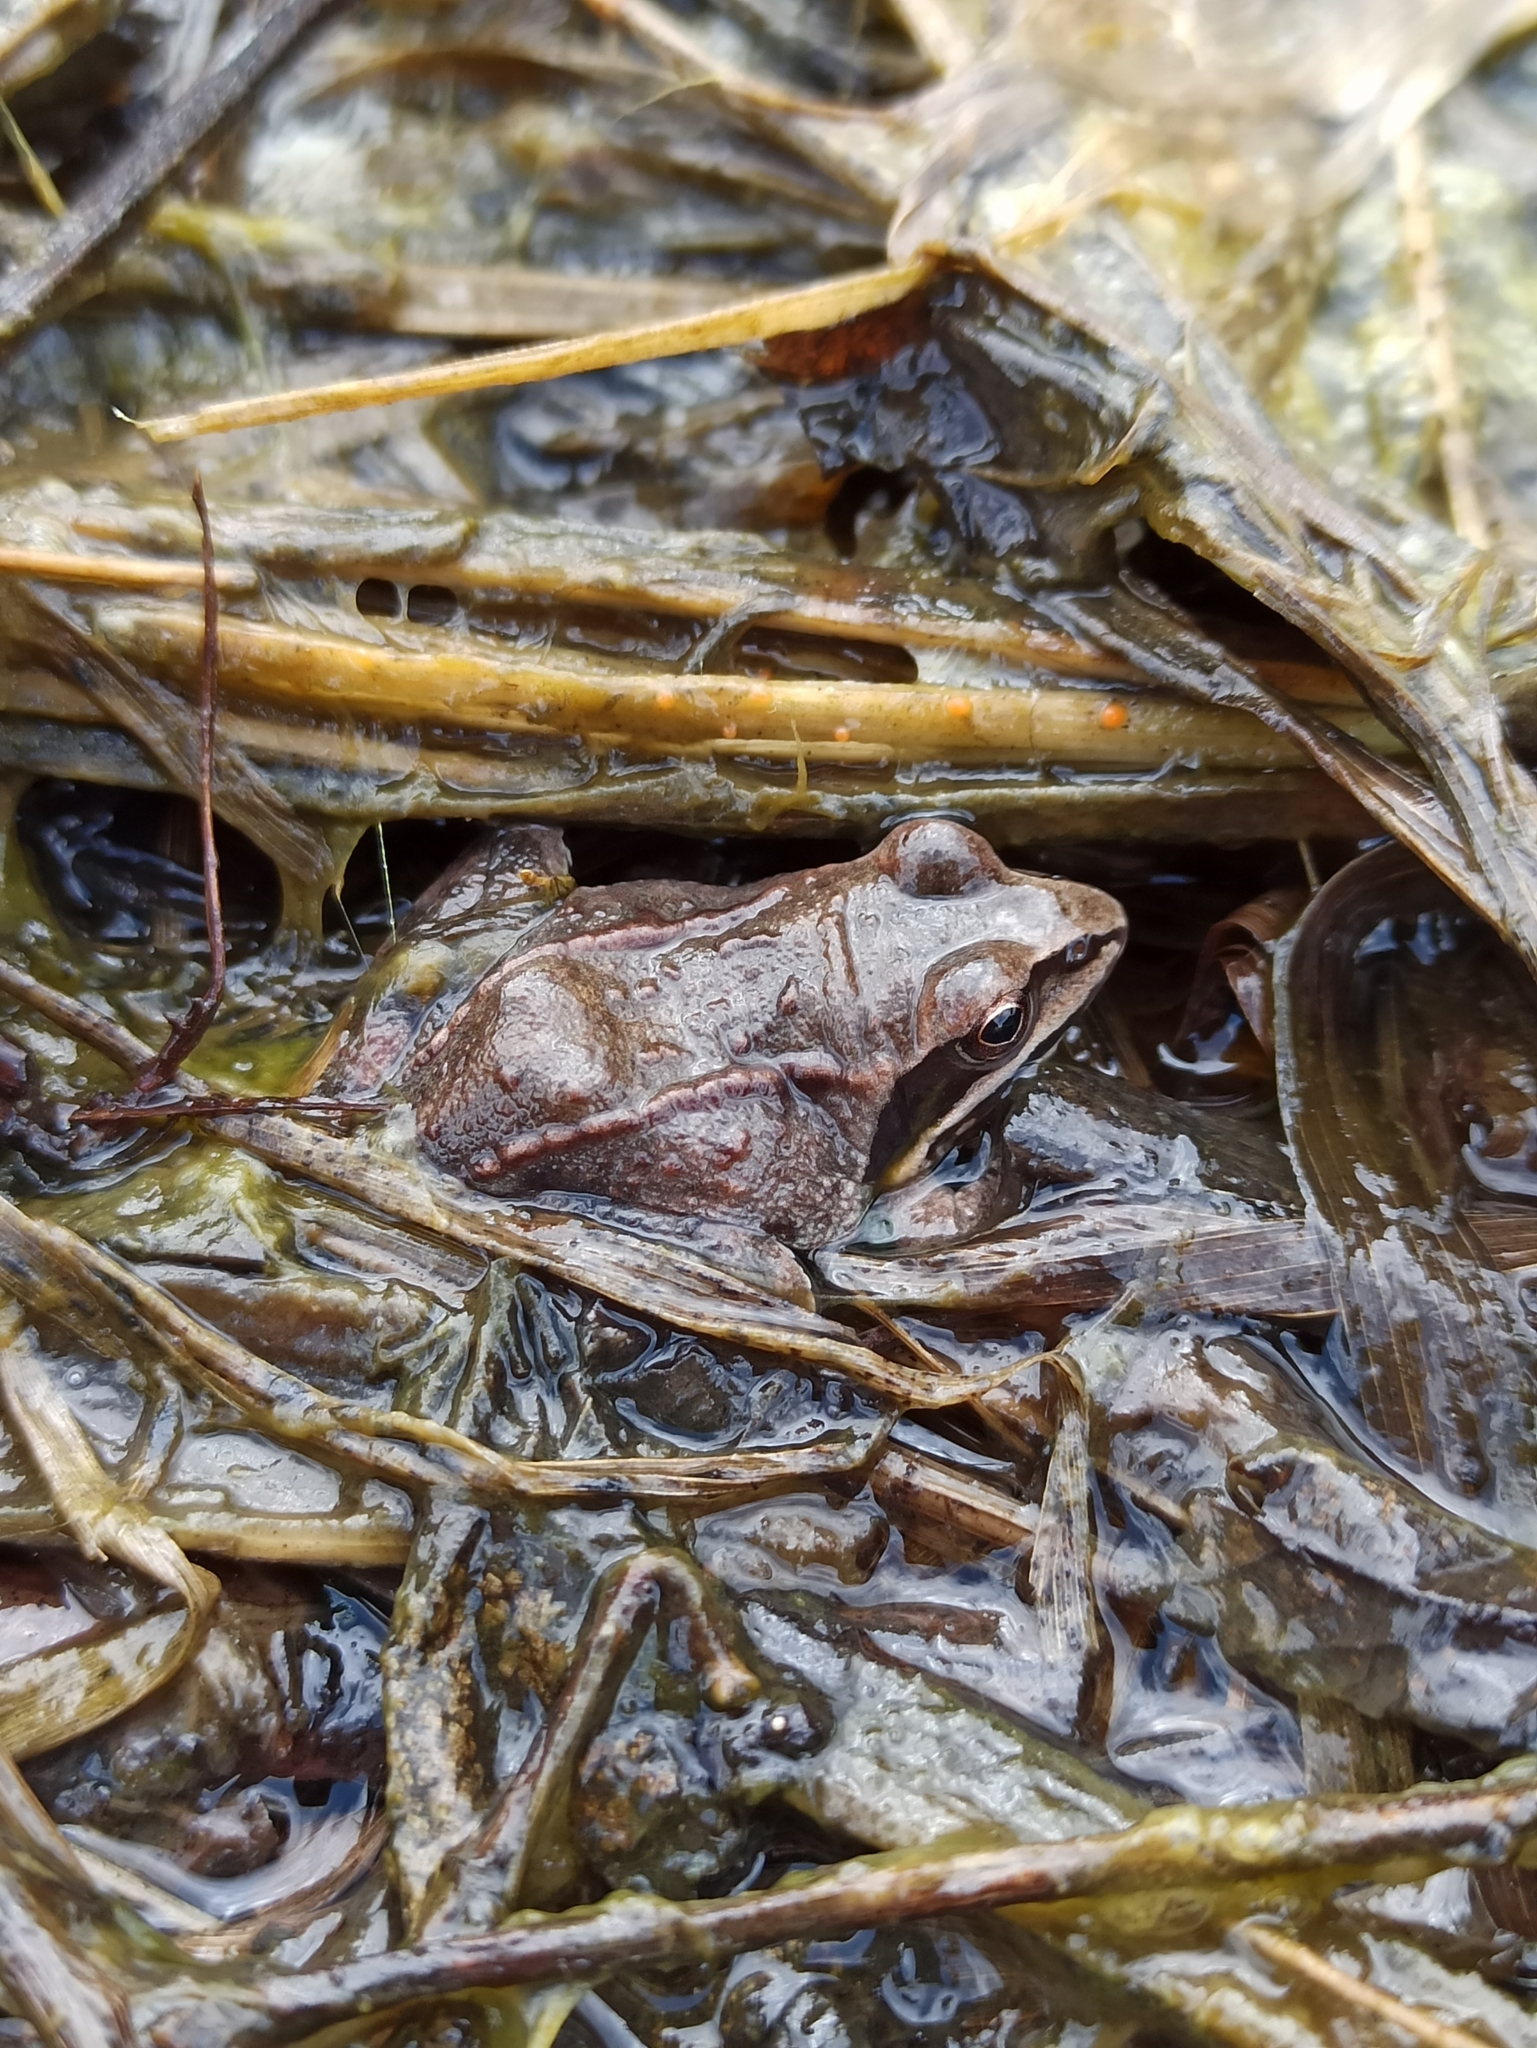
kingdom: Animalia
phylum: Chordata
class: Amphibia
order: Anura
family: Ranidae
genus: Rana
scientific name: Rana arvalis
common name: Moor frog
